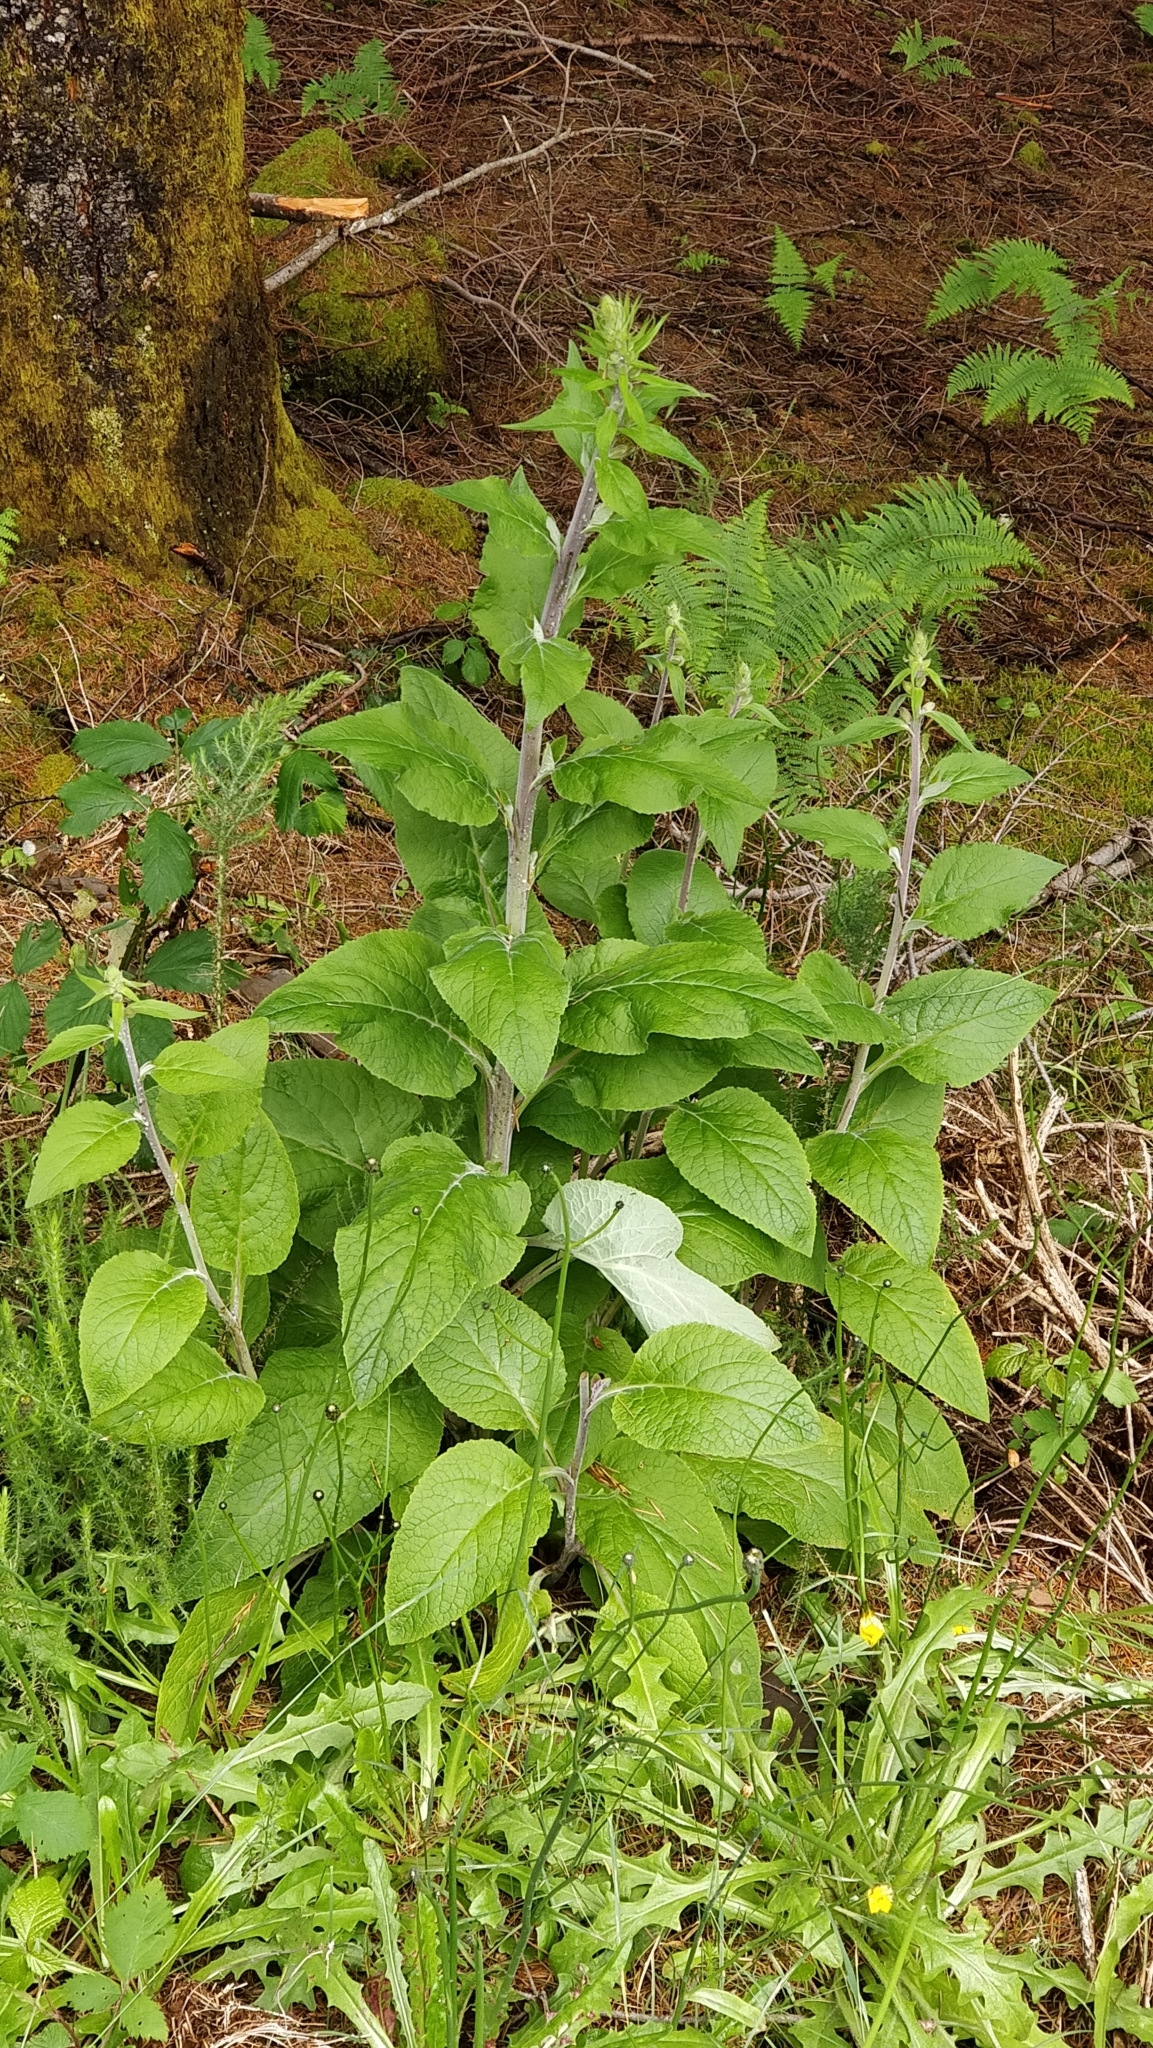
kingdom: Plantae
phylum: Tracheophyta
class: Magnoliopsida
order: Lamiales
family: Plantaginaceae
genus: Digitalis
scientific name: Digitalis purpurea
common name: Foxglove
